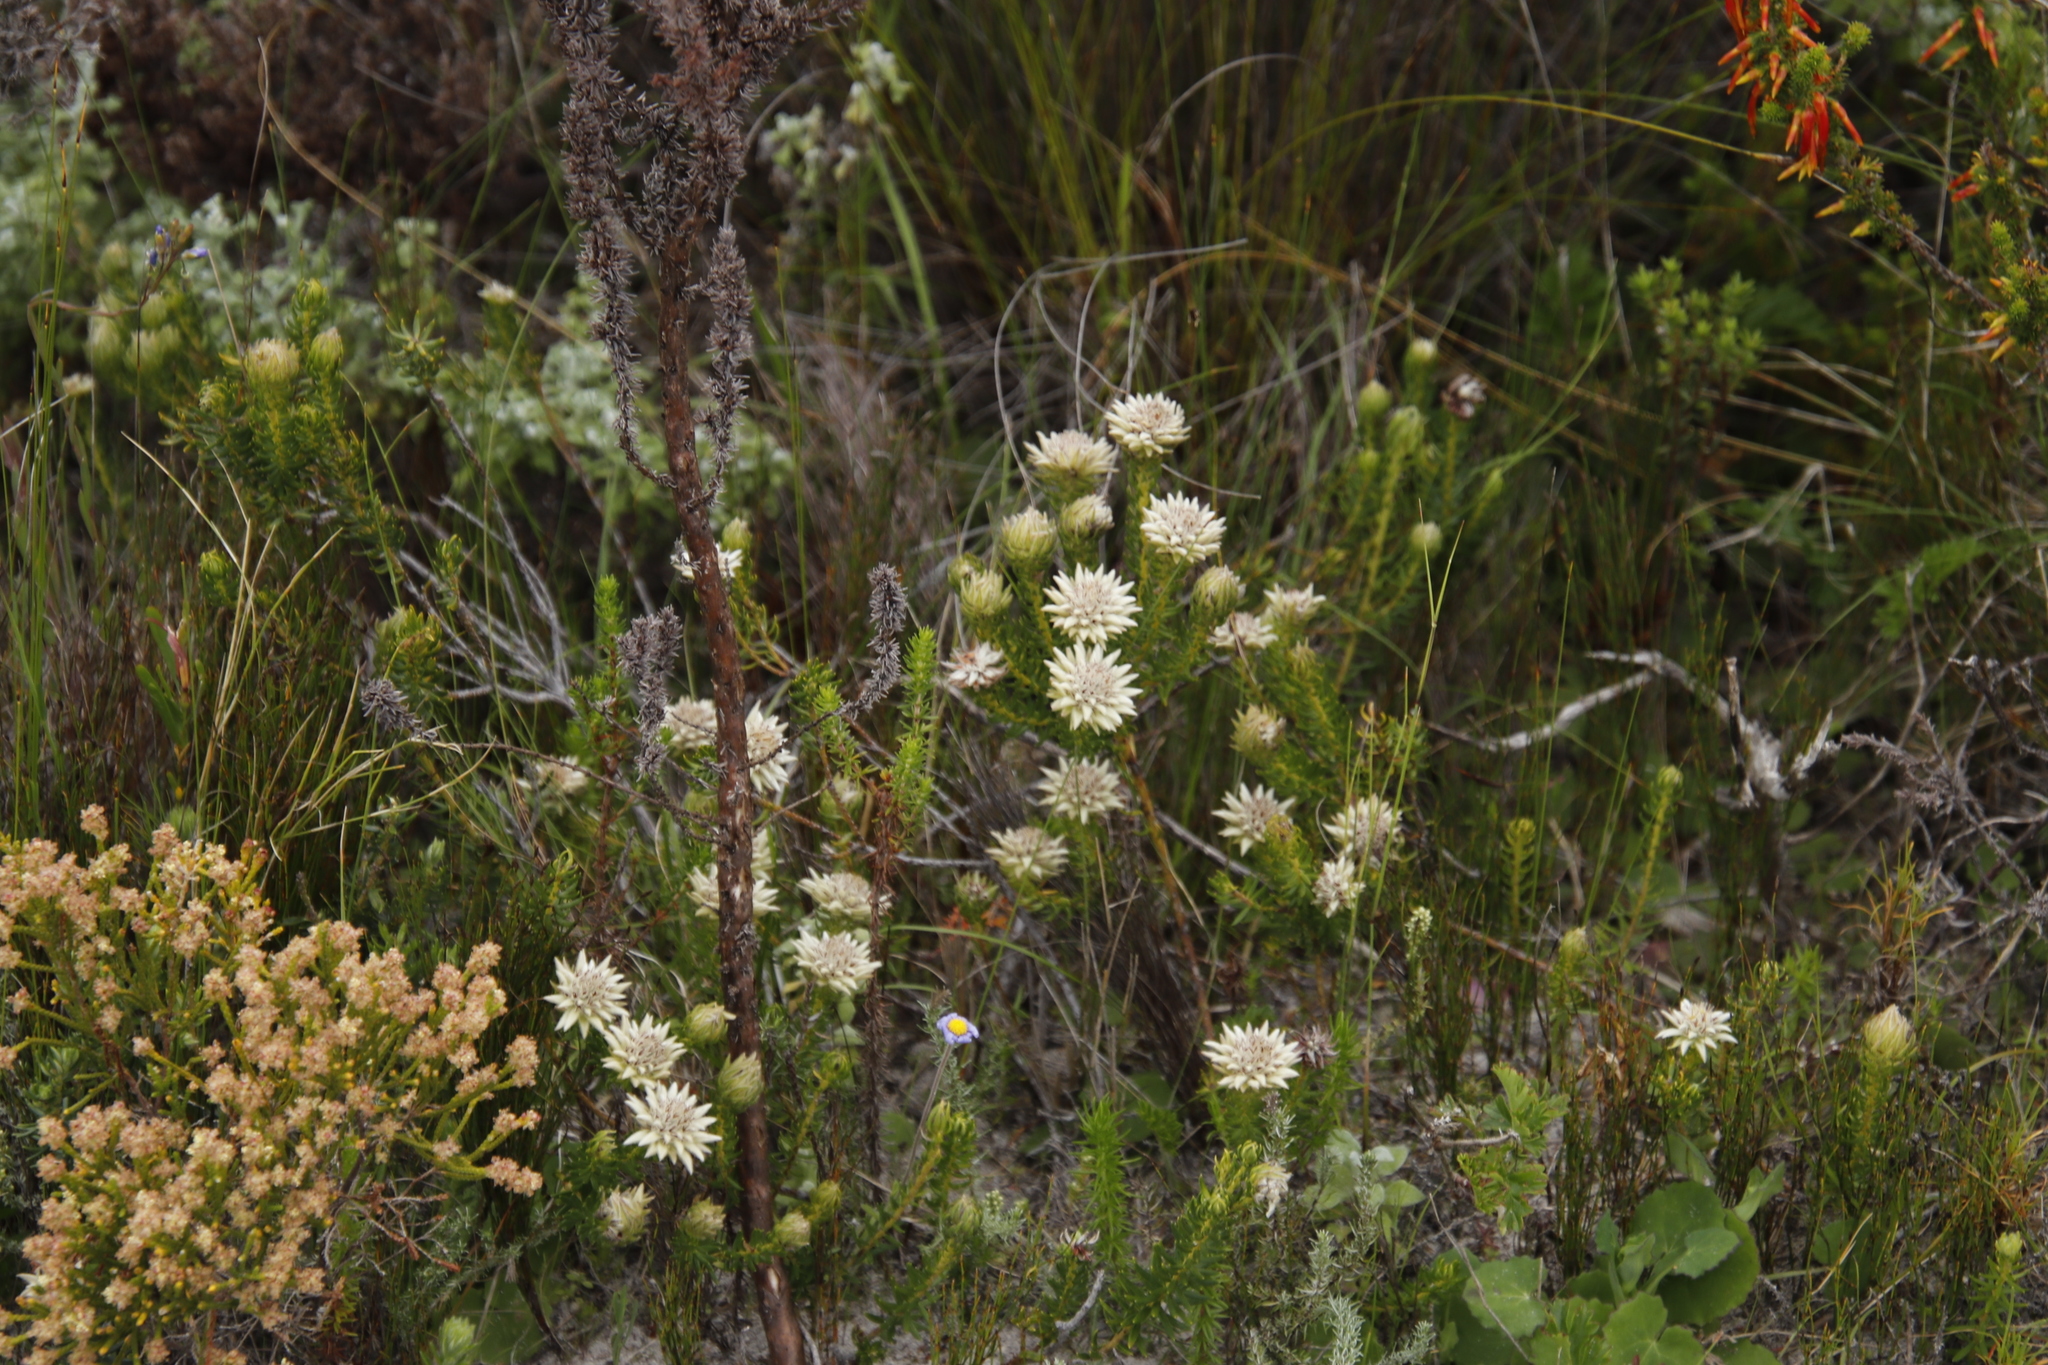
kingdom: Plantae
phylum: Tracheophyta
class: Magnoliopsida
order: Rosales
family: Rhamnaceae
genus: Phylica
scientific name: Phylica dodii
